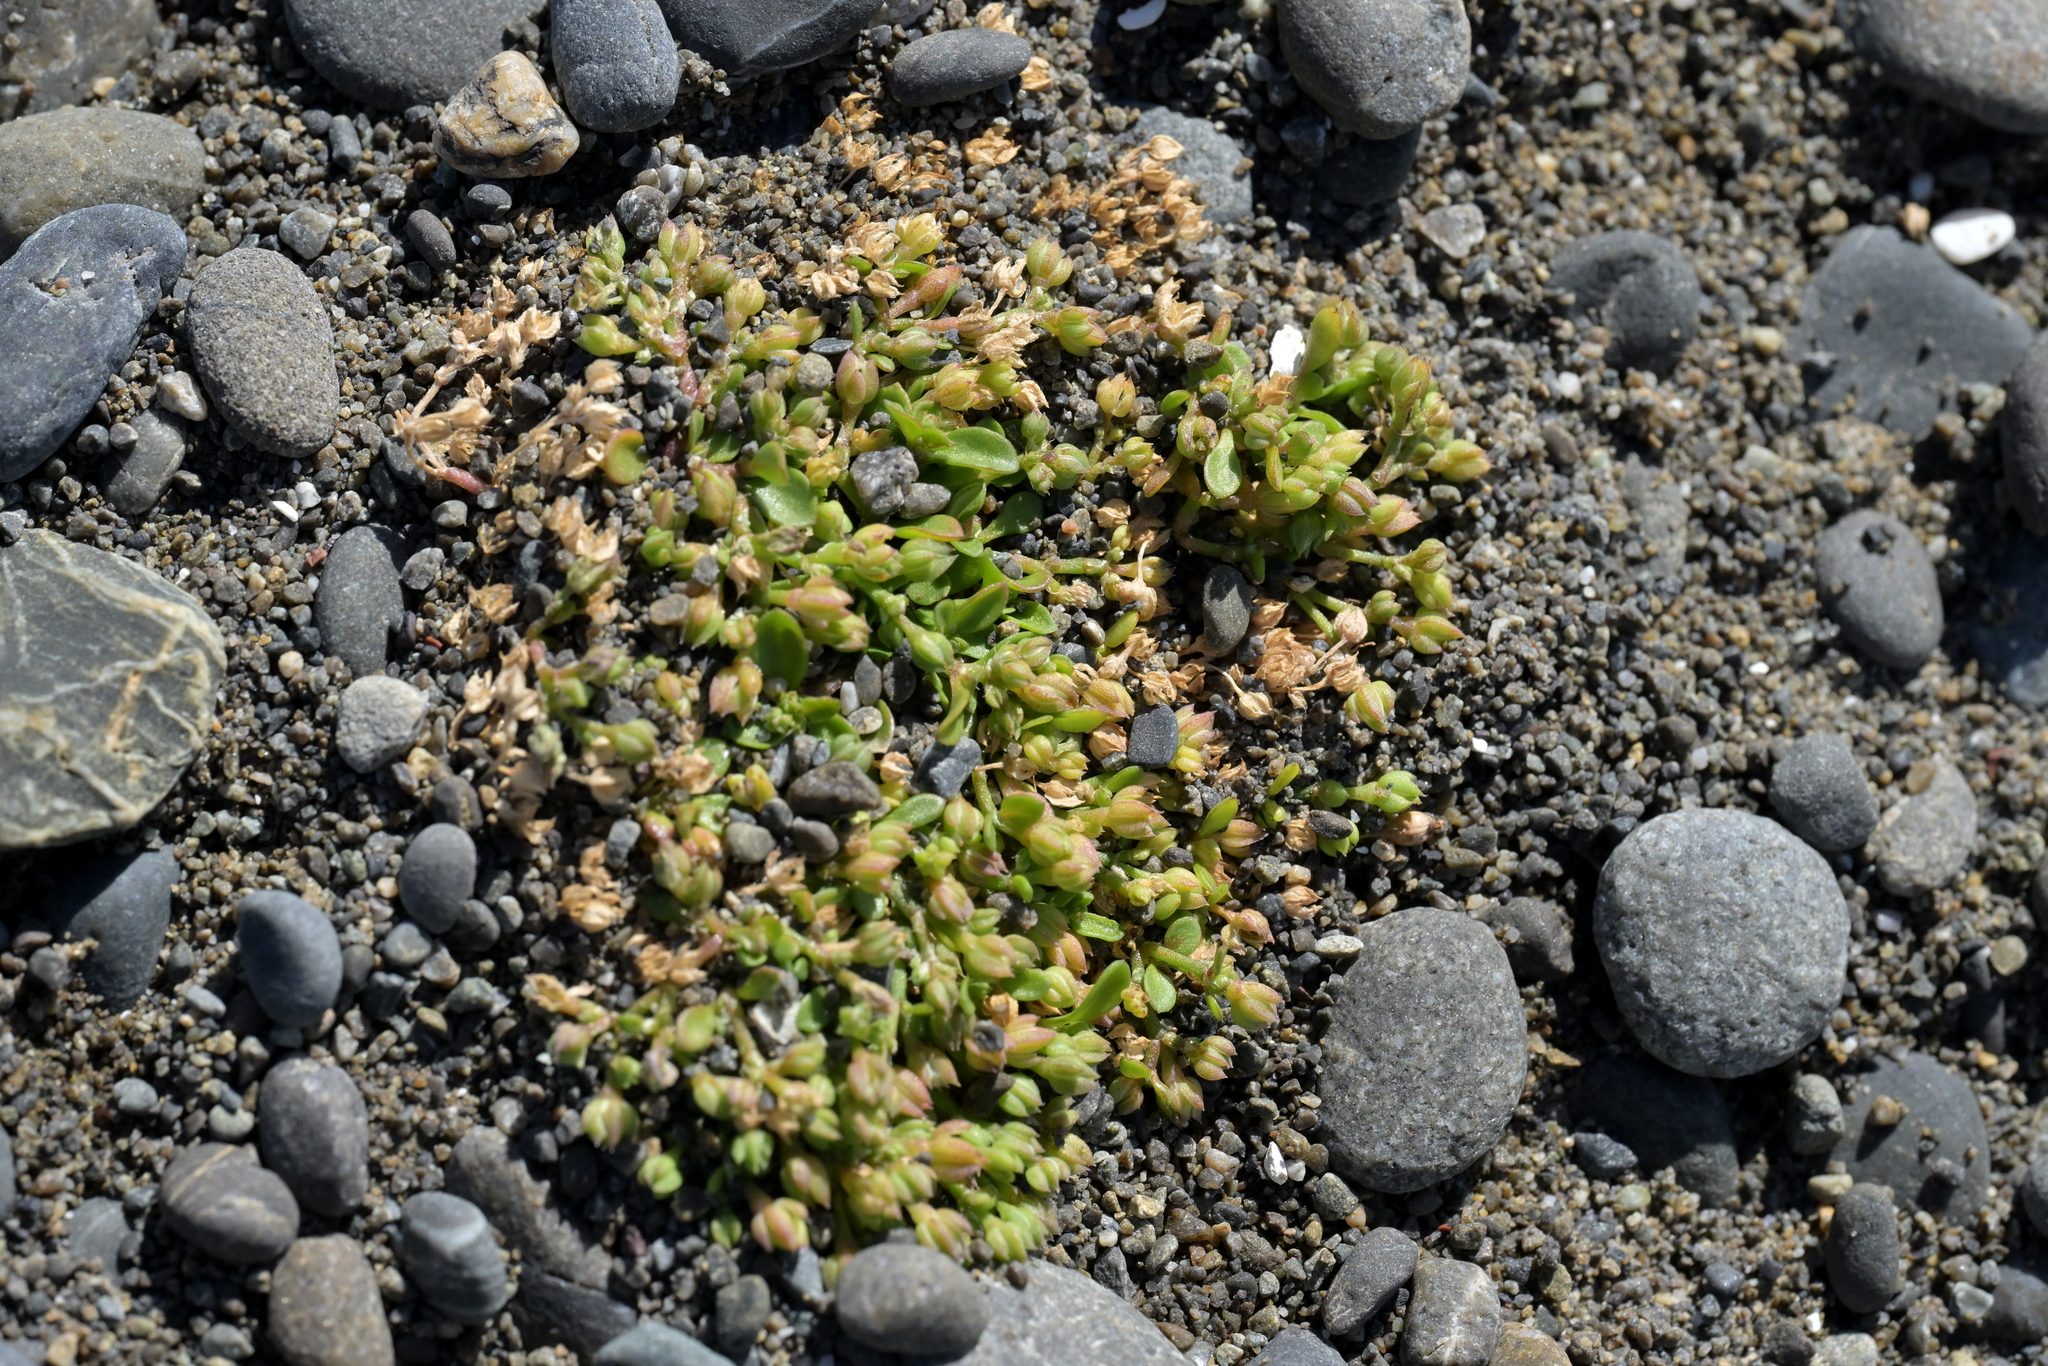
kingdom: Plantae
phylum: Tracheophyta
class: Magnoliopsida
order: Caryophyllales
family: Caryophyllaceae
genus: Polycarpon
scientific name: Polycarpon tetraphyllum
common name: Four-leaved all-seed
